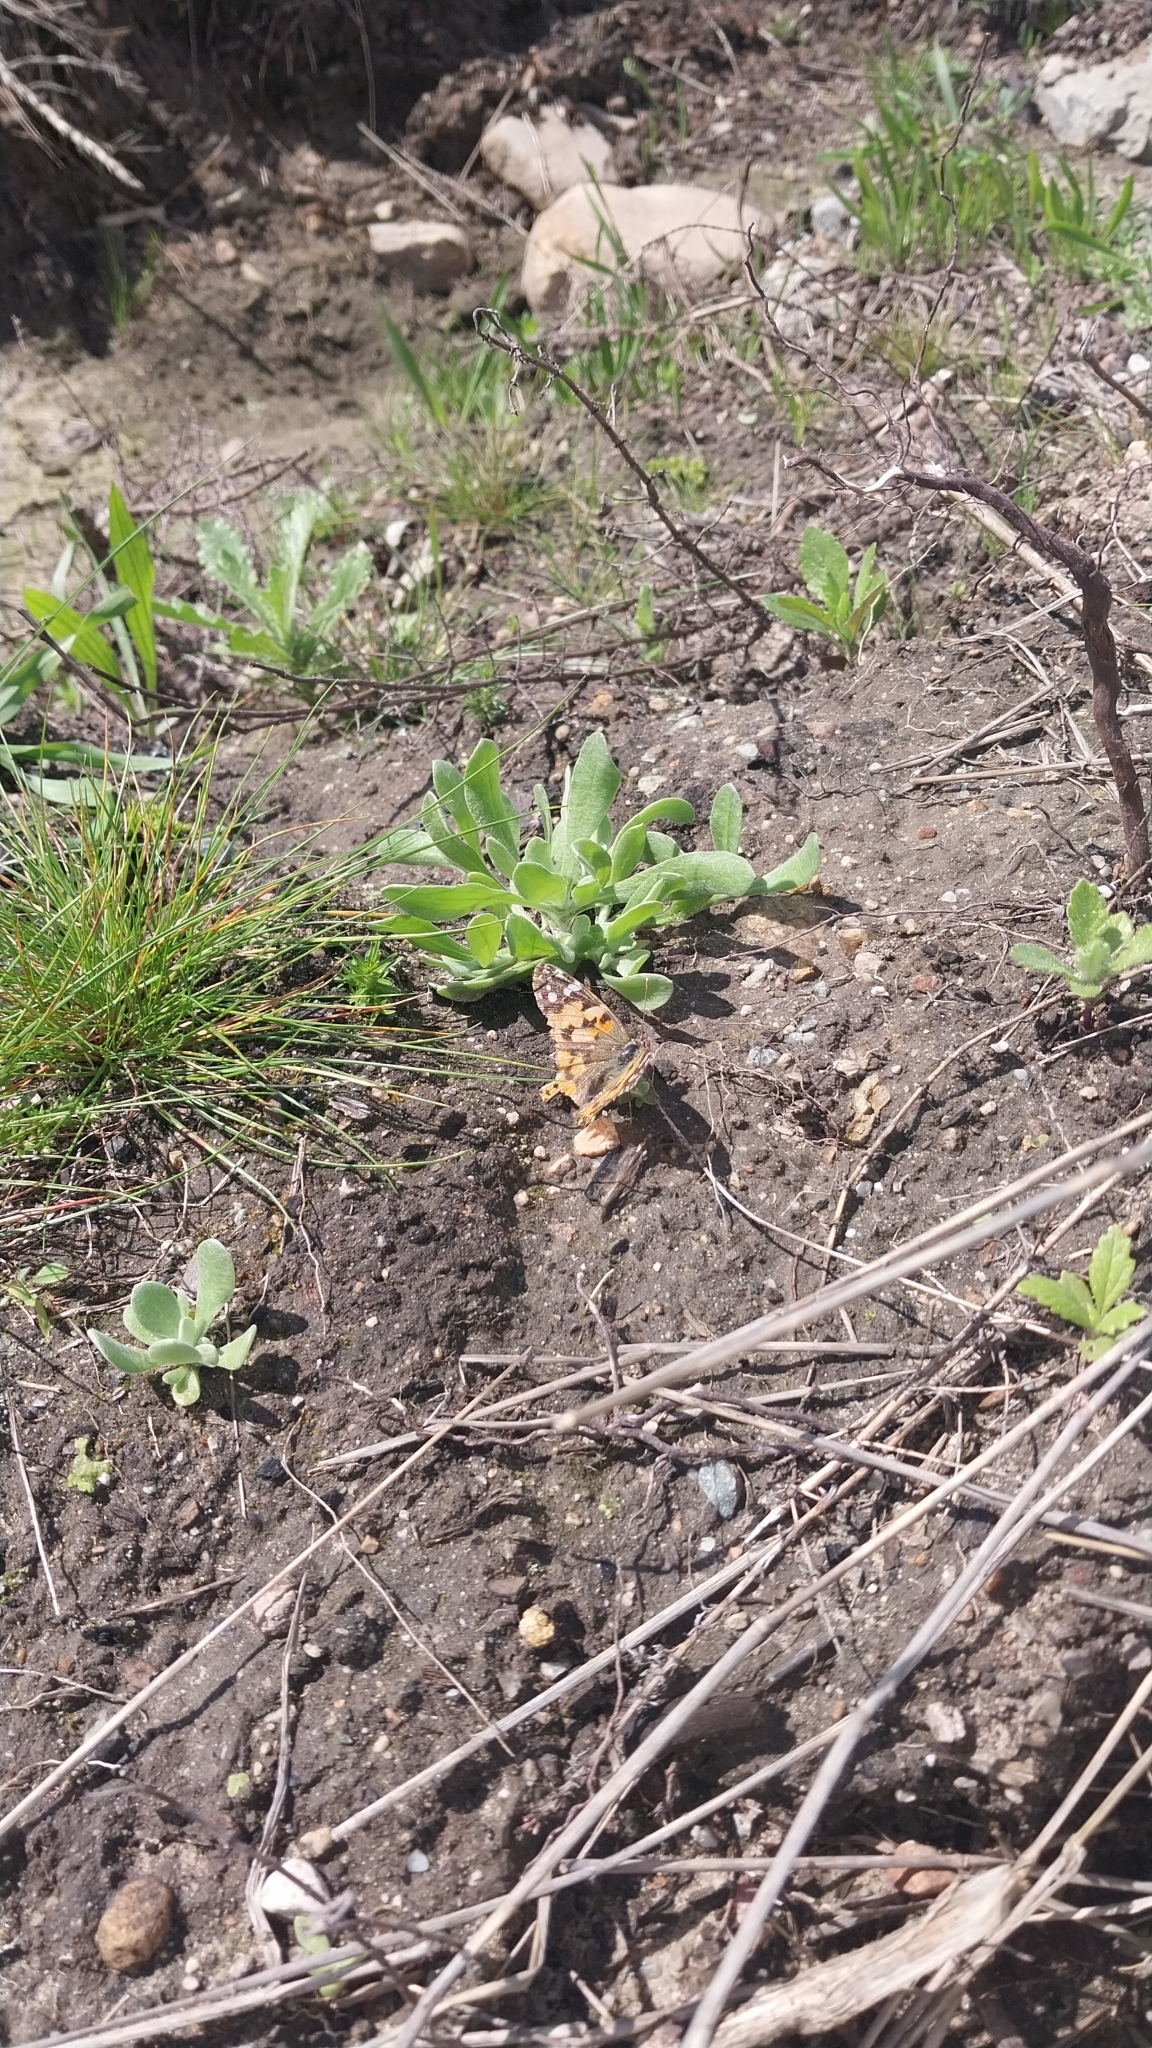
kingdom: Animalia
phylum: Arthropoda
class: Insecta
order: Lepidoptera
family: Nymphalidae
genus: Vanessa
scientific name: Vanessa cardui
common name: Painted lady
